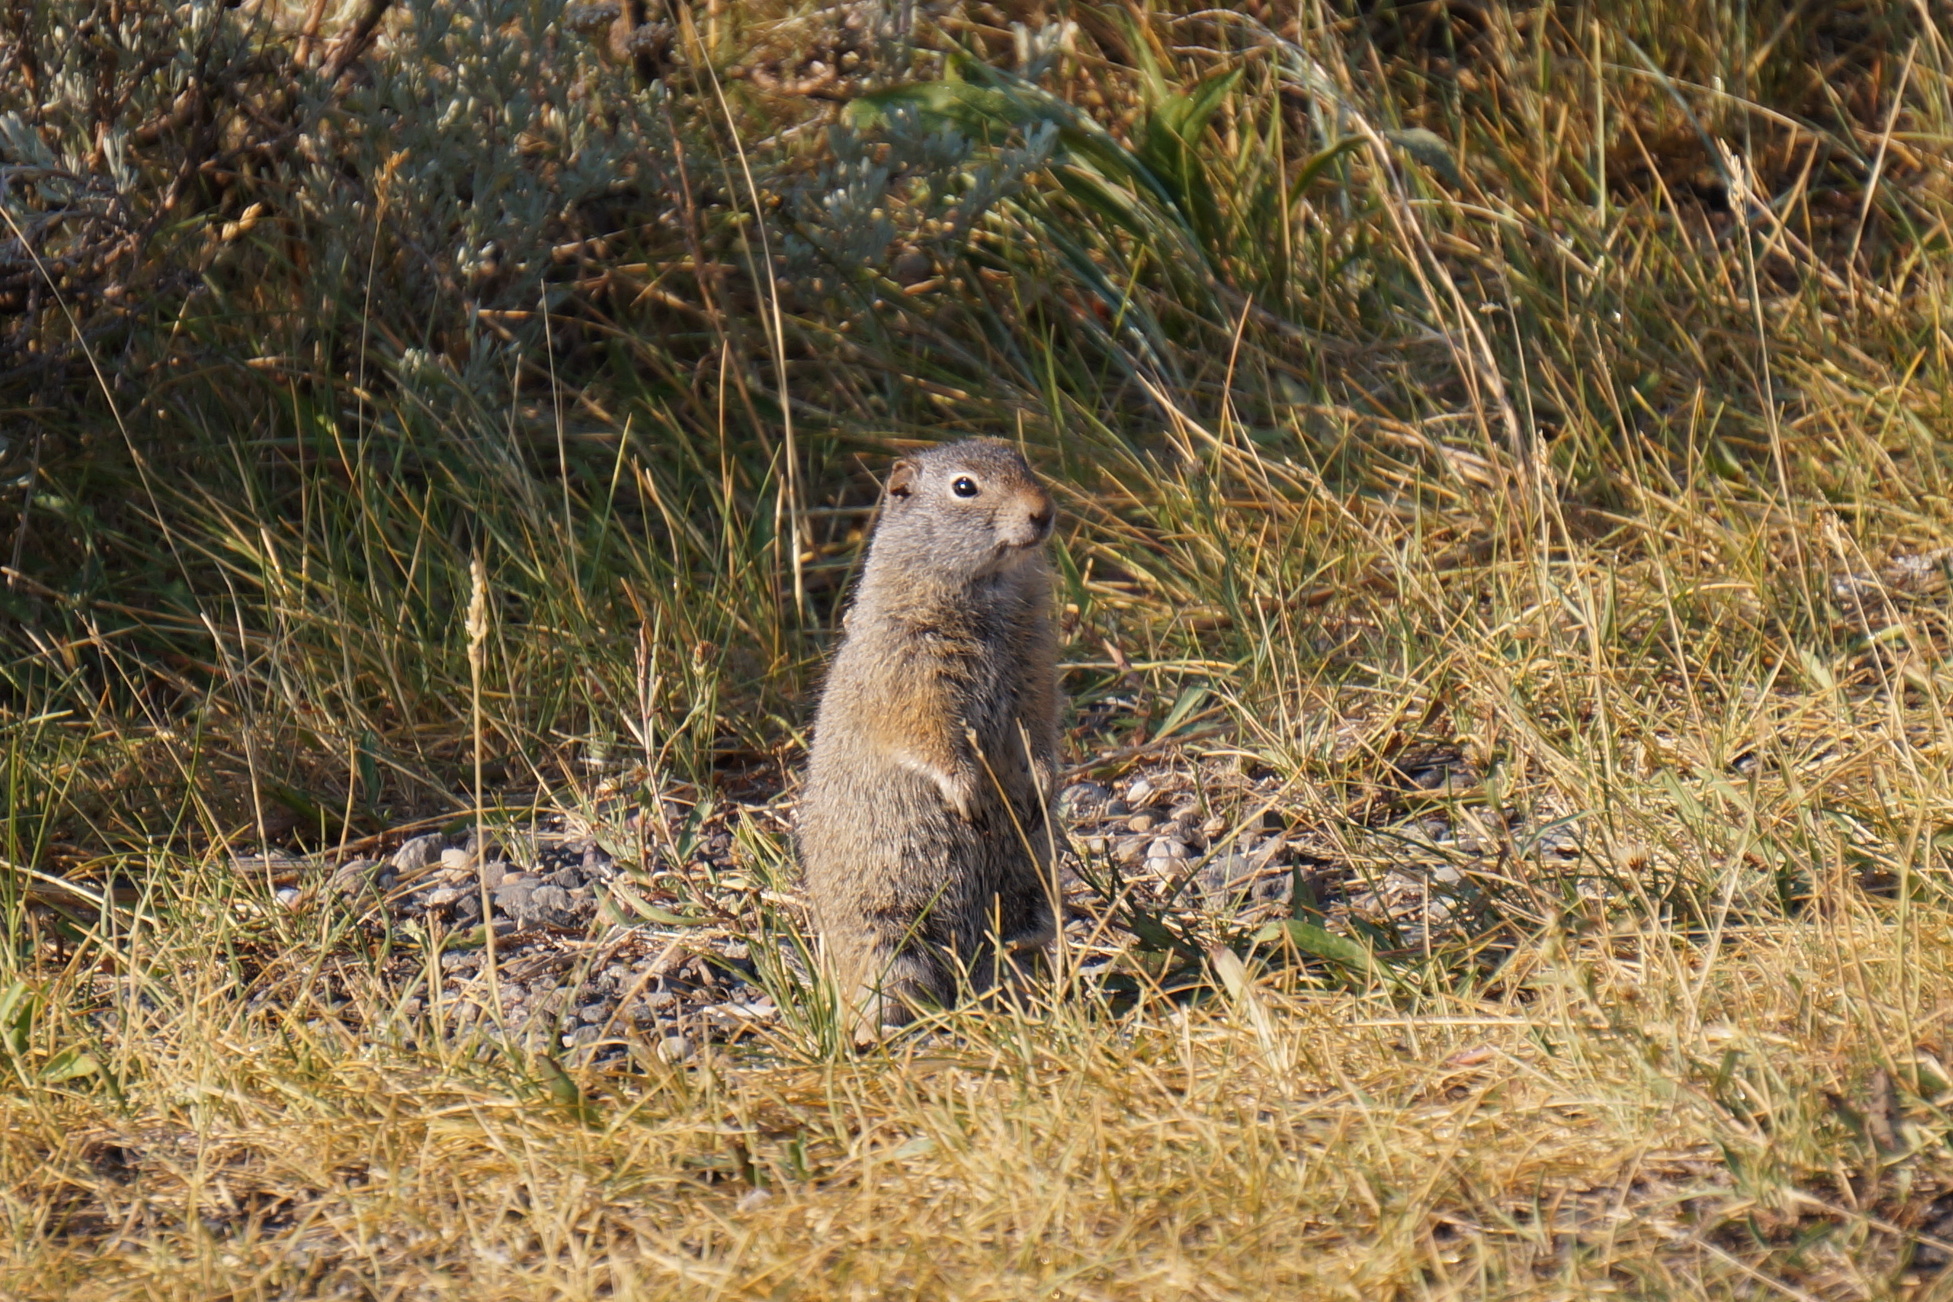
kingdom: Animalia
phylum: Chordata
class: Mammalia
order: Rodentia
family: Sciuridae
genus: Urocitellus
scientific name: Urocitellus armatus
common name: Uinta ground squirrel
